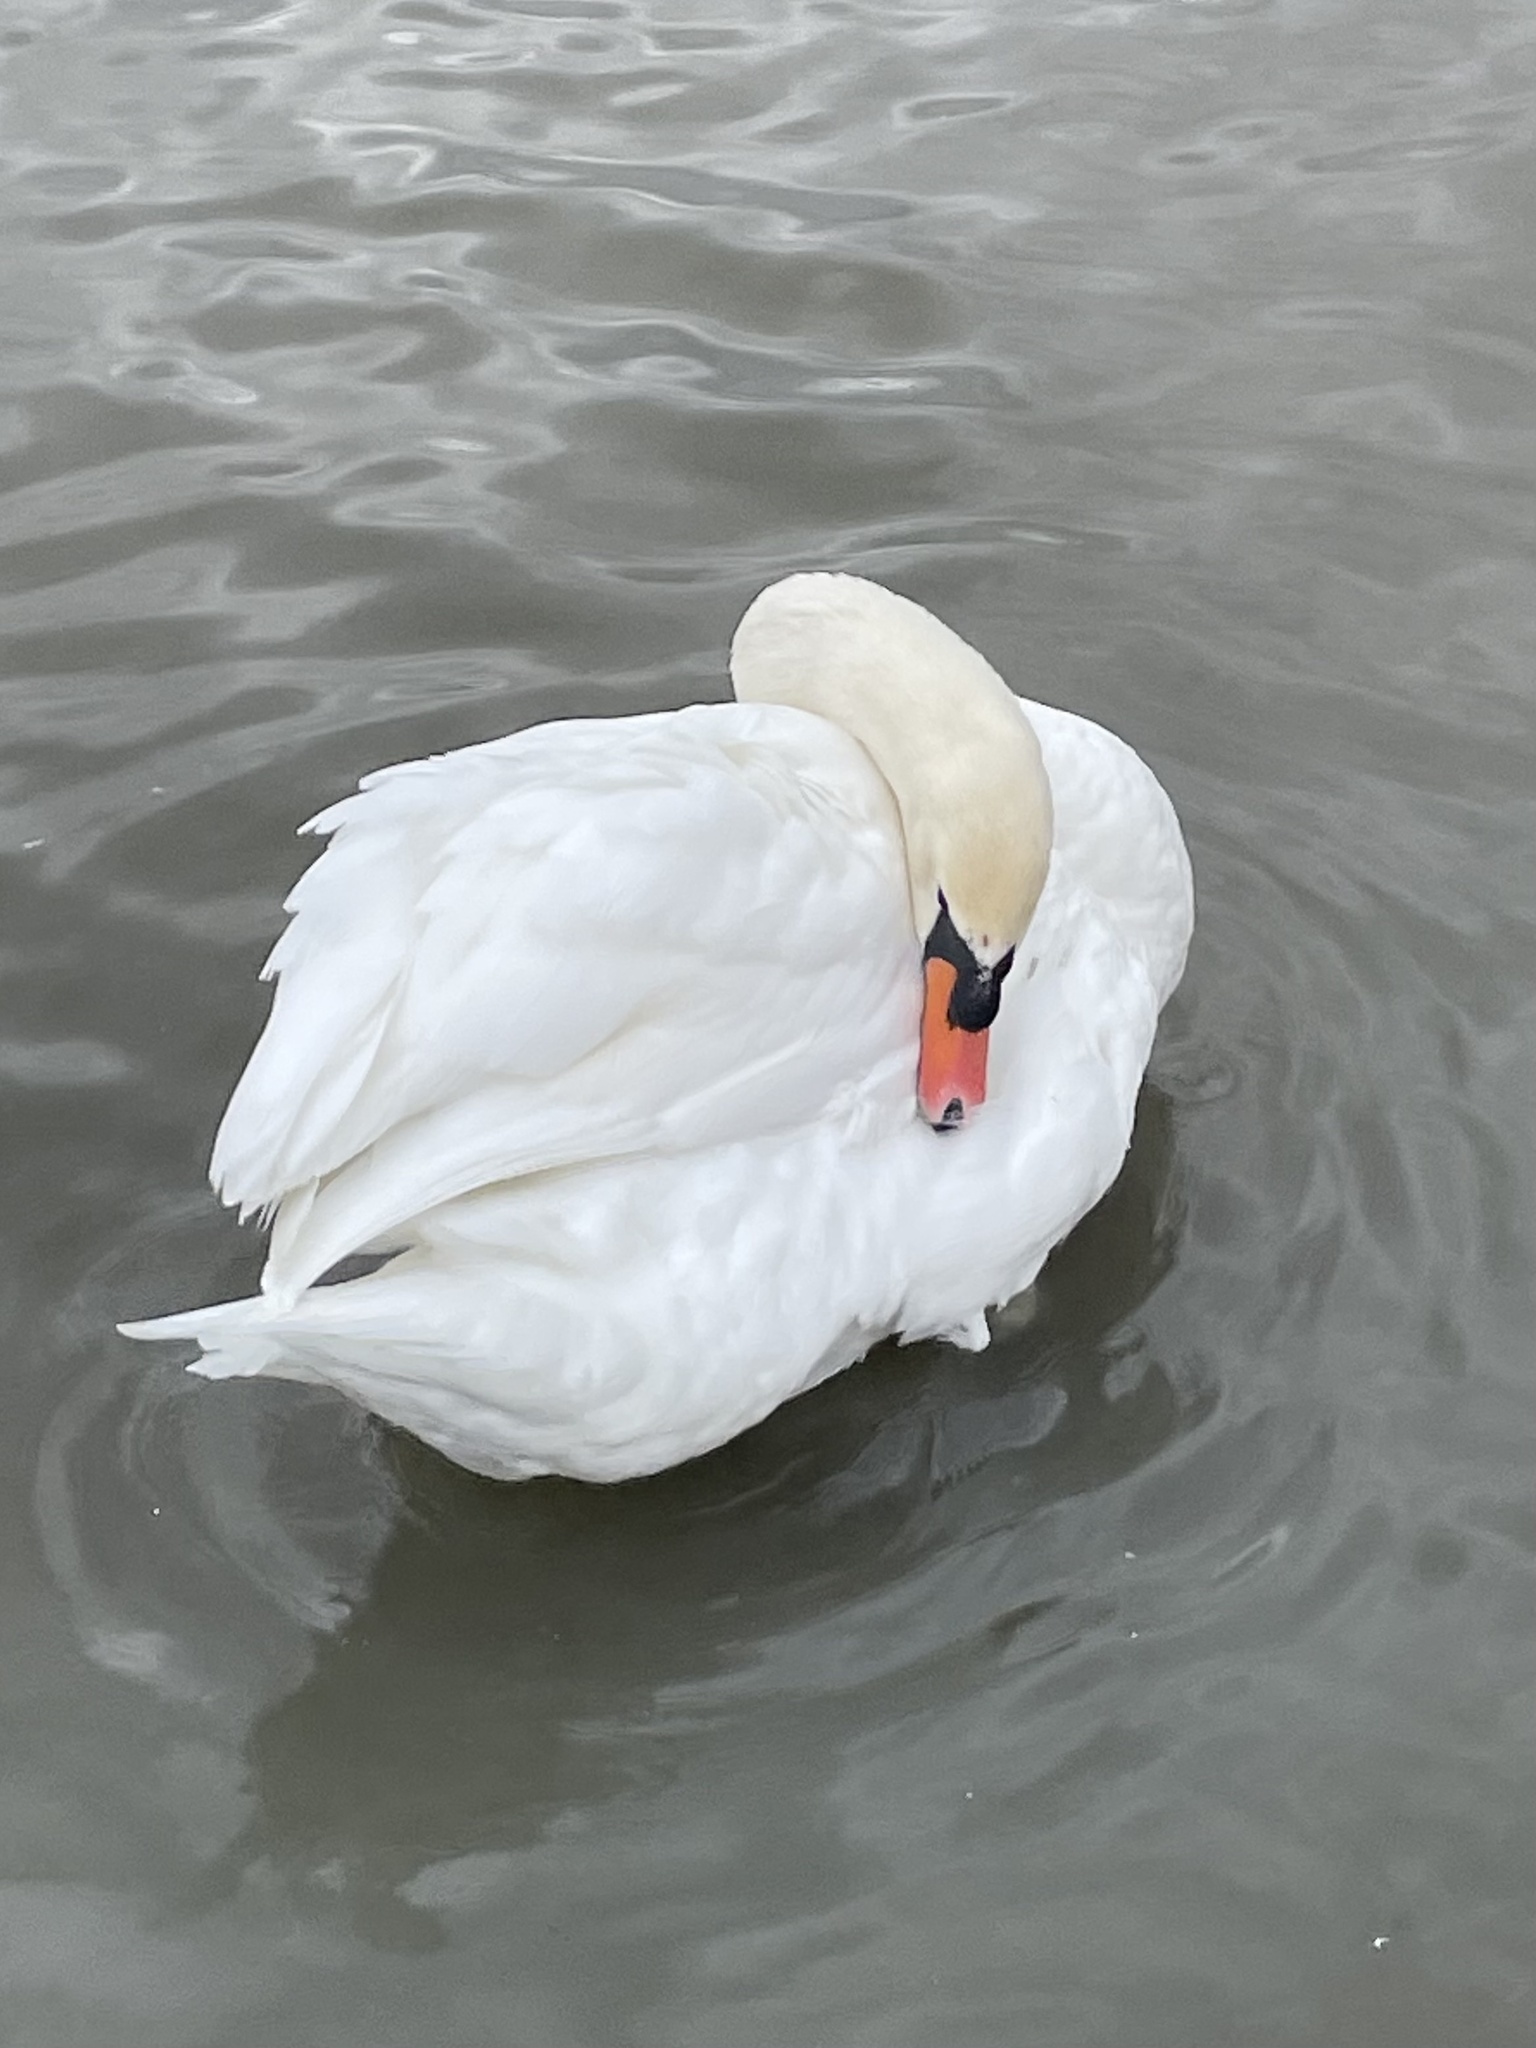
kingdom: Animalia
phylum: Chordata
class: Aves
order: Anseriformes
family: Anatidae
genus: Cygnus
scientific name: Cygnus olor
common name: Mute swan
